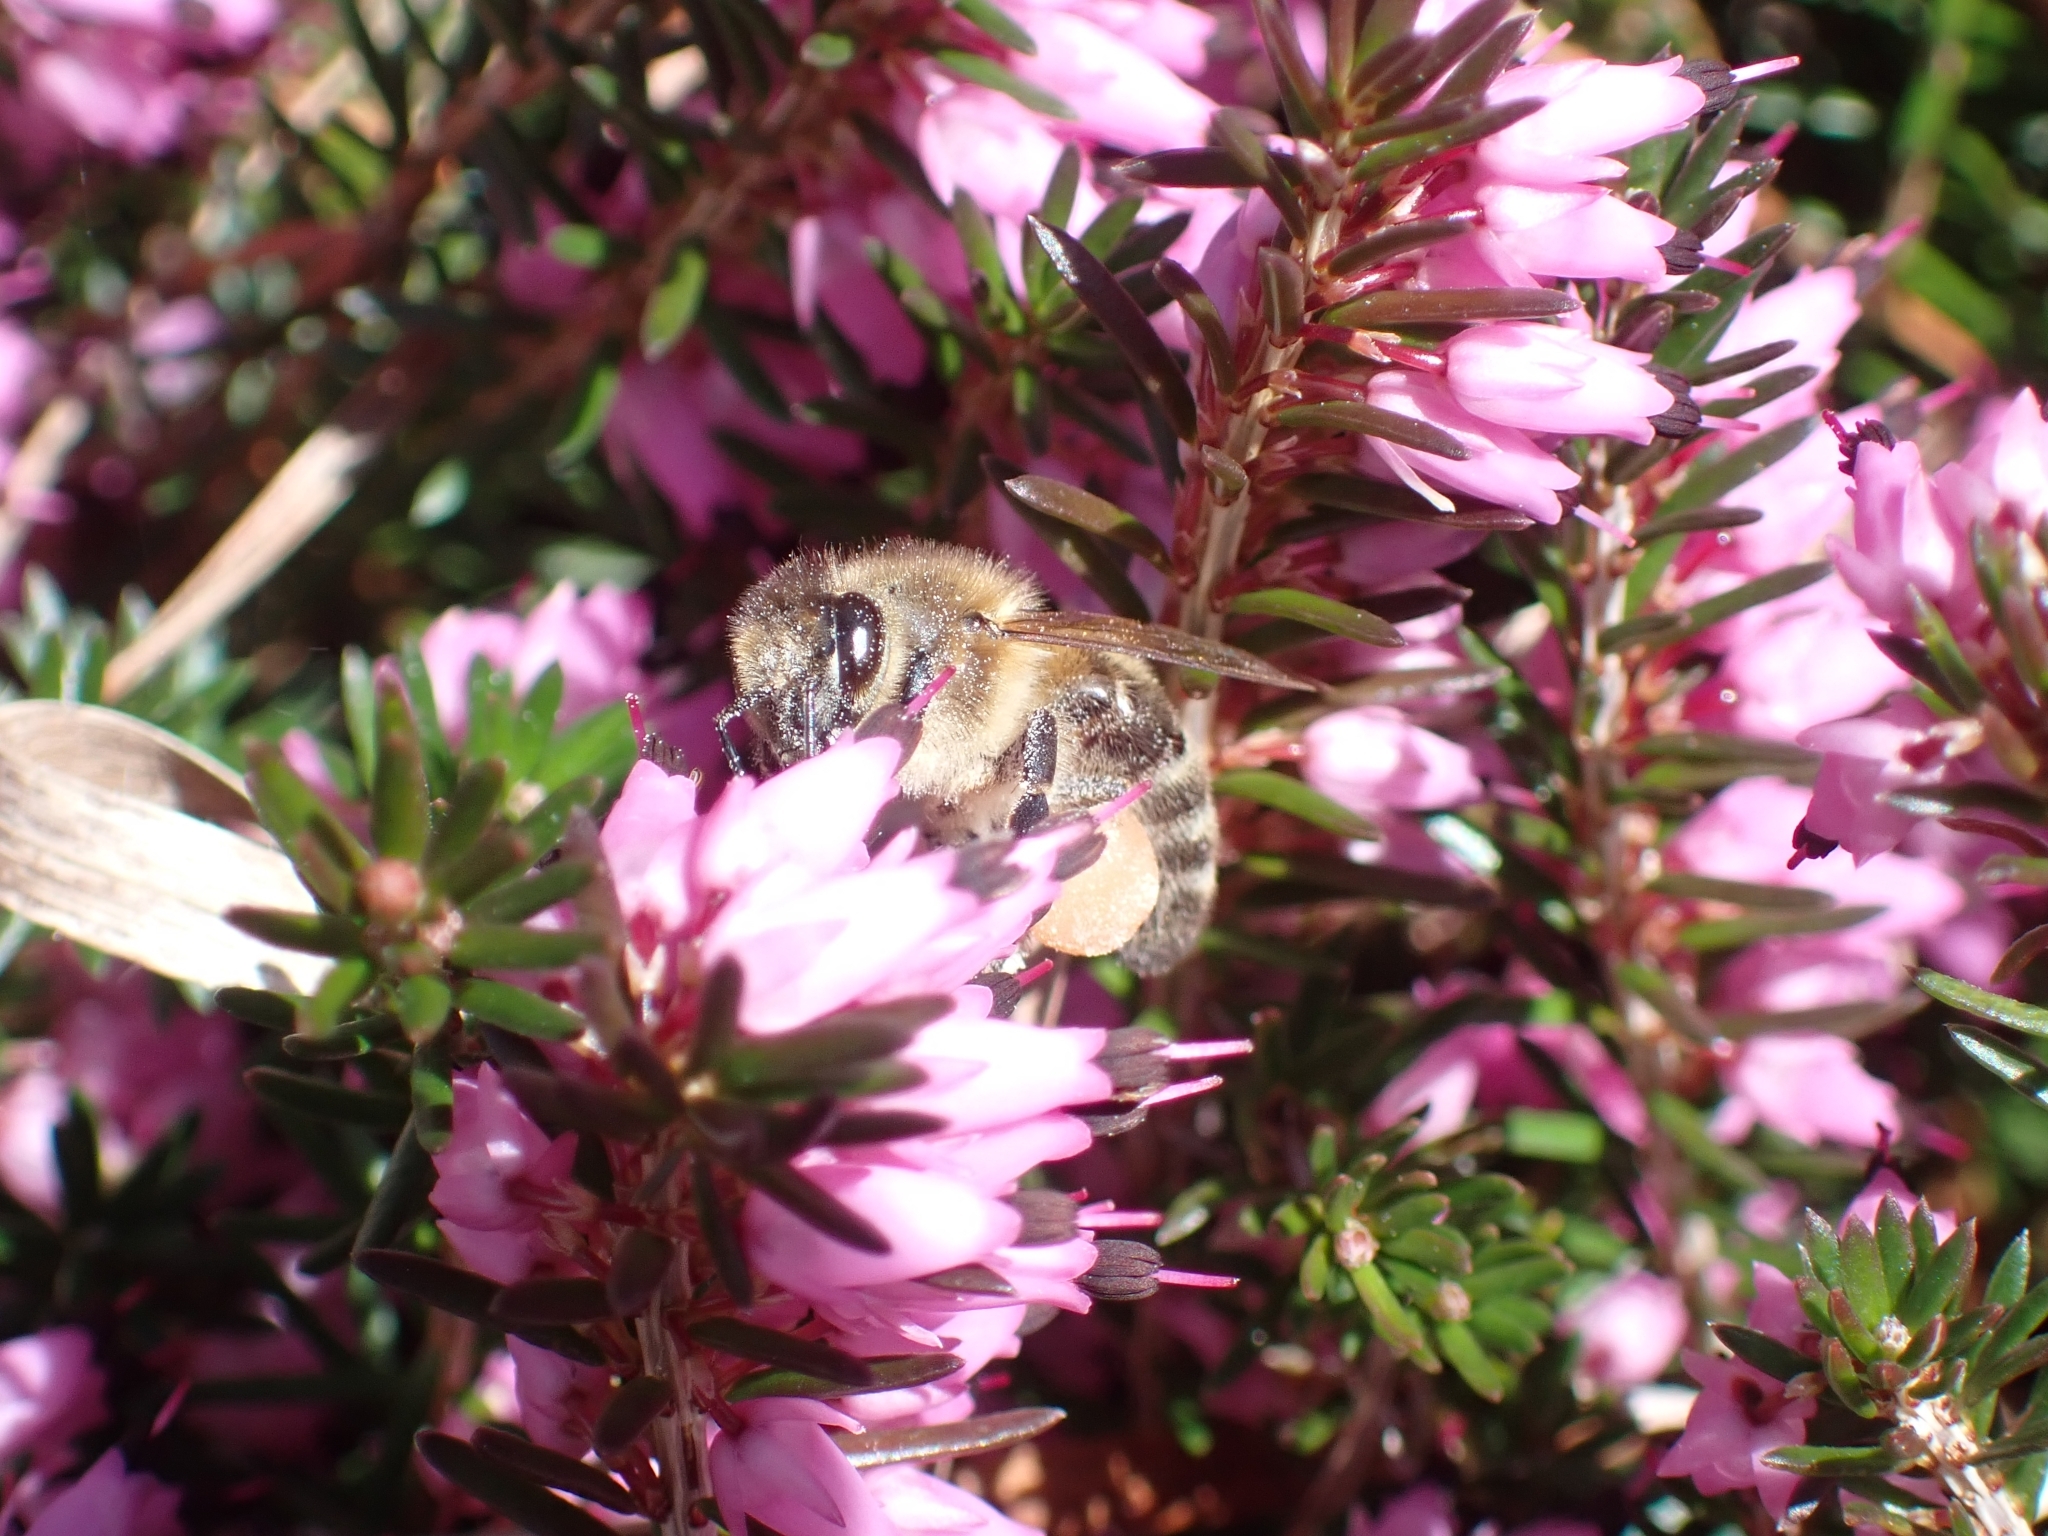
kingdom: Animalia
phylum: Arthropoda
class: Insecta
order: Hymenoptera
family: Apidae
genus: Apis
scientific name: Apis mellifera
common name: Honey bee
